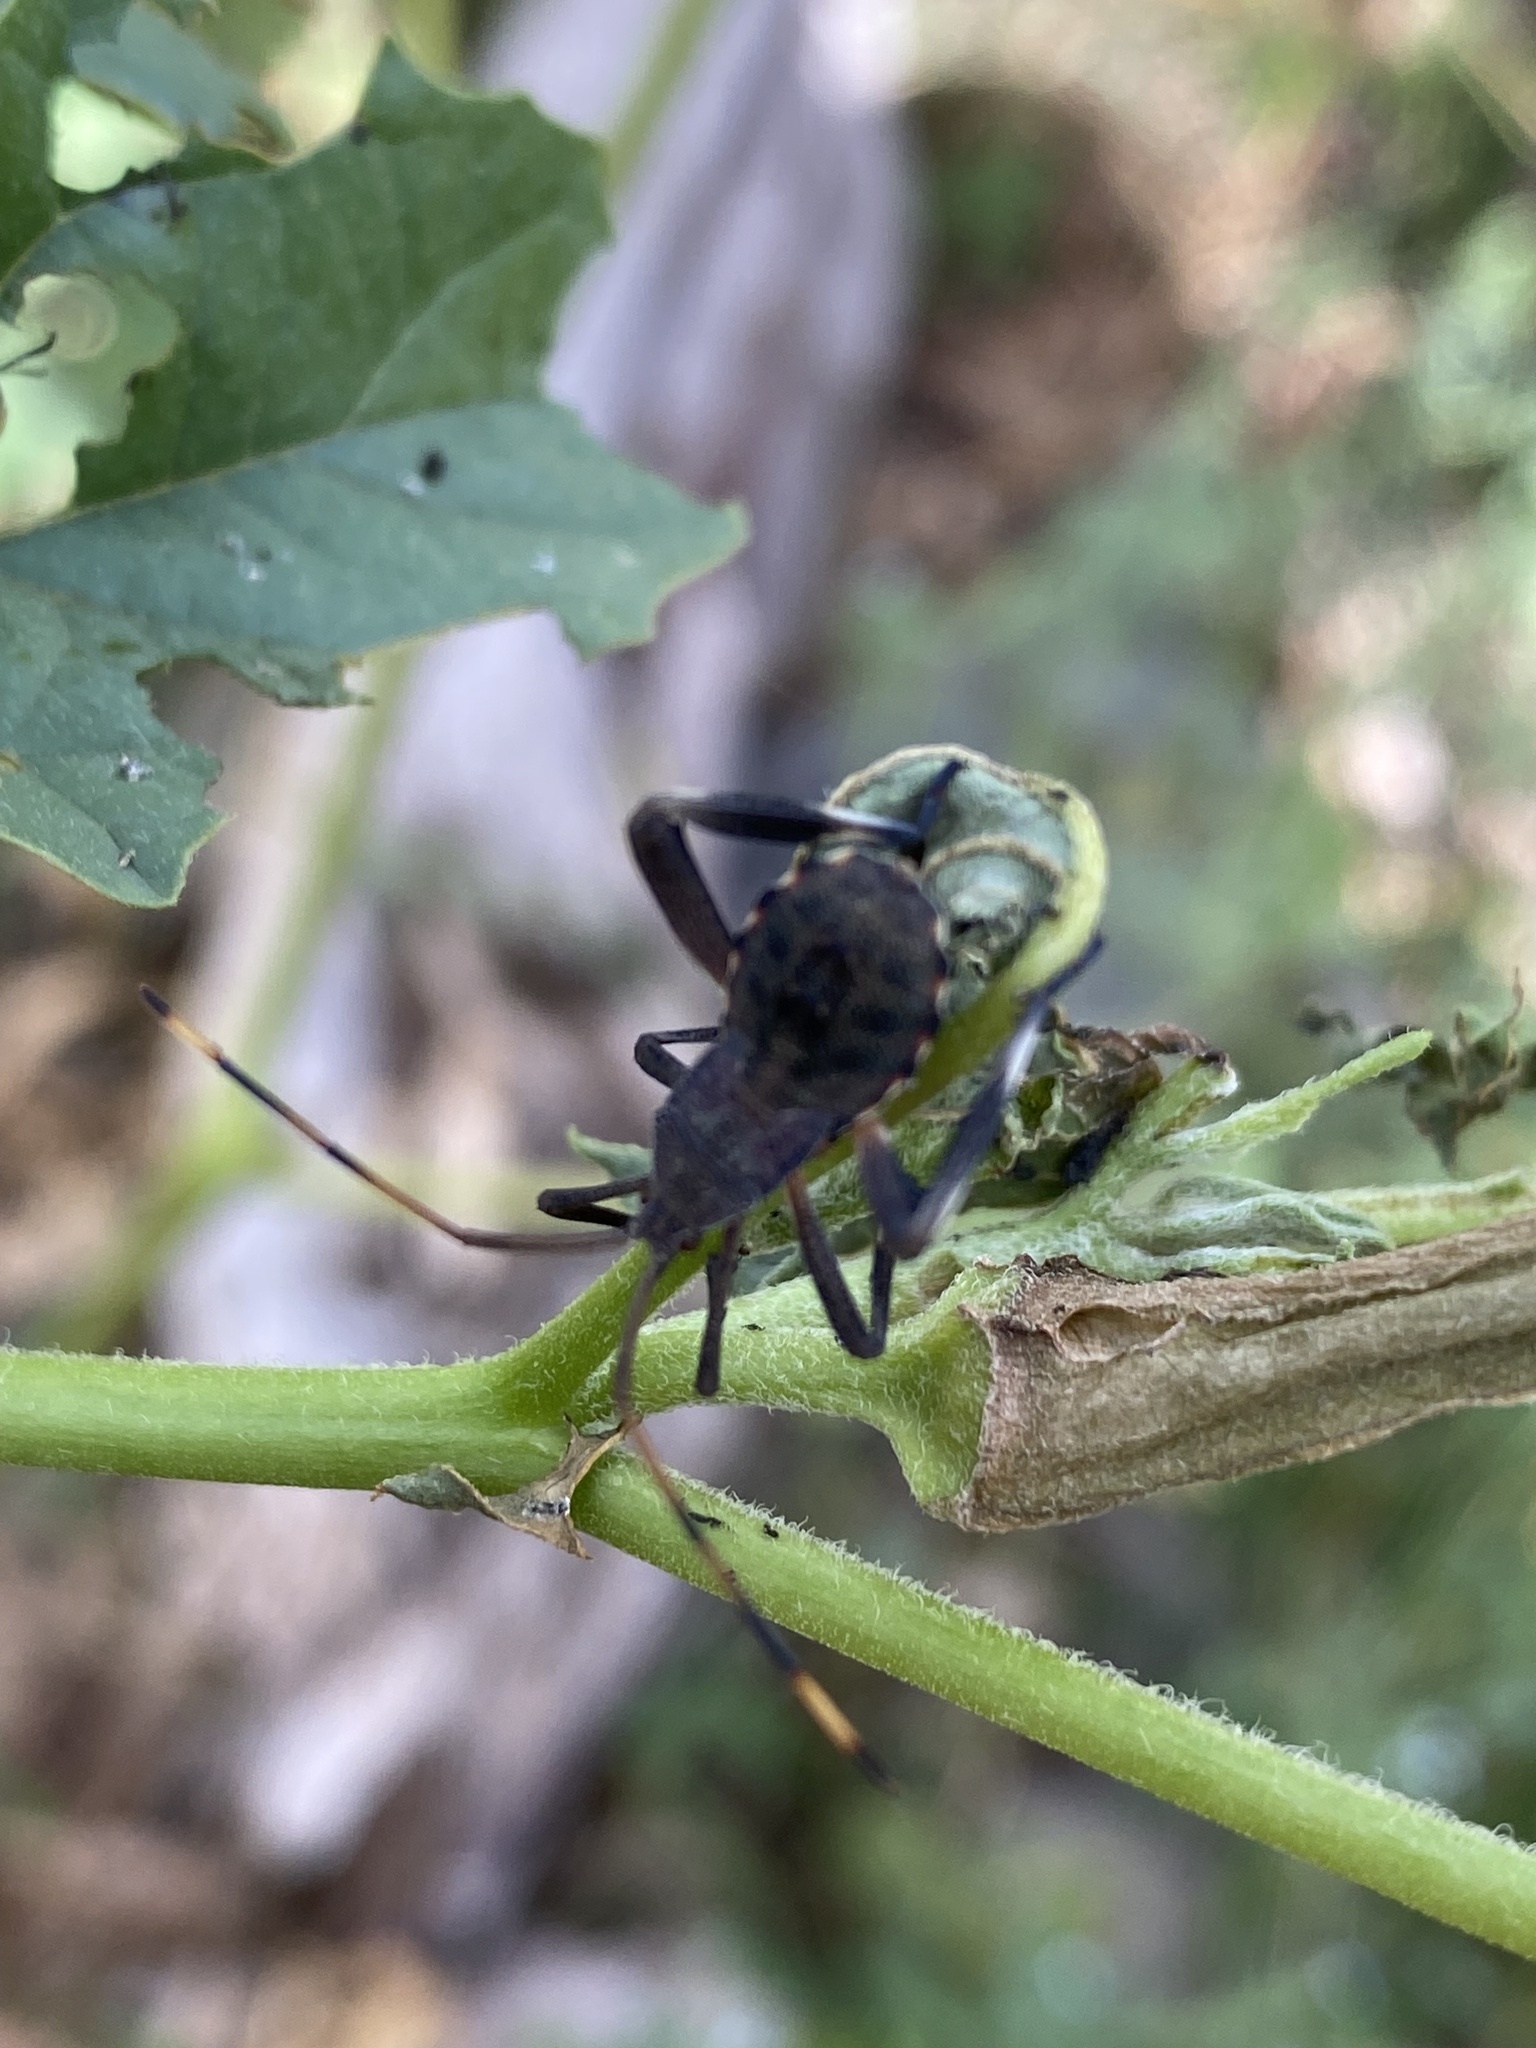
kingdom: Animalia
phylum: Arthropoda
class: Insecta
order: Hemiptera
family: Coreidae
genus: Mictis
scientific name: Mictis caja
